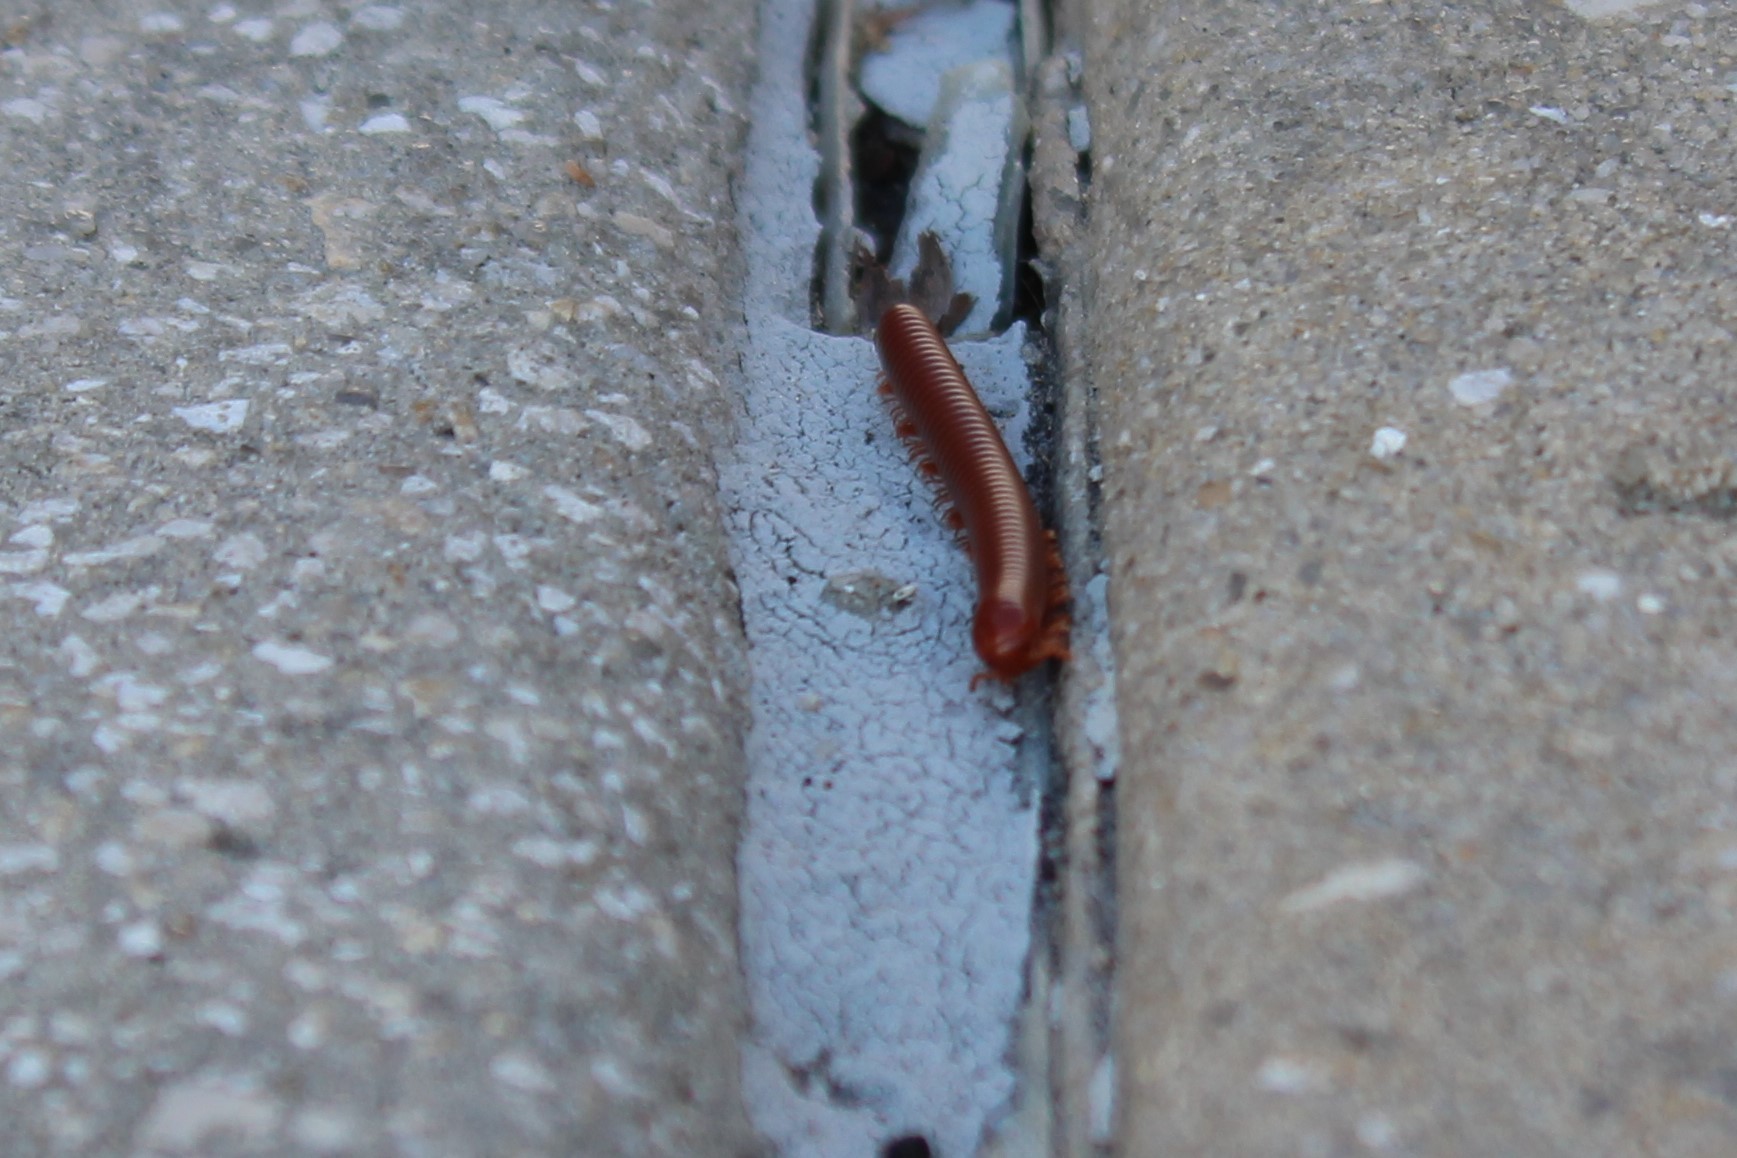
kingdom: Animalia
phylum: Arthropoda
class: Diplopoda
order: Spirobolida
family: Pachybolidae
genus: Trigoniulus
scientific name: Trigoniulus corallinus
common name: Millipede
